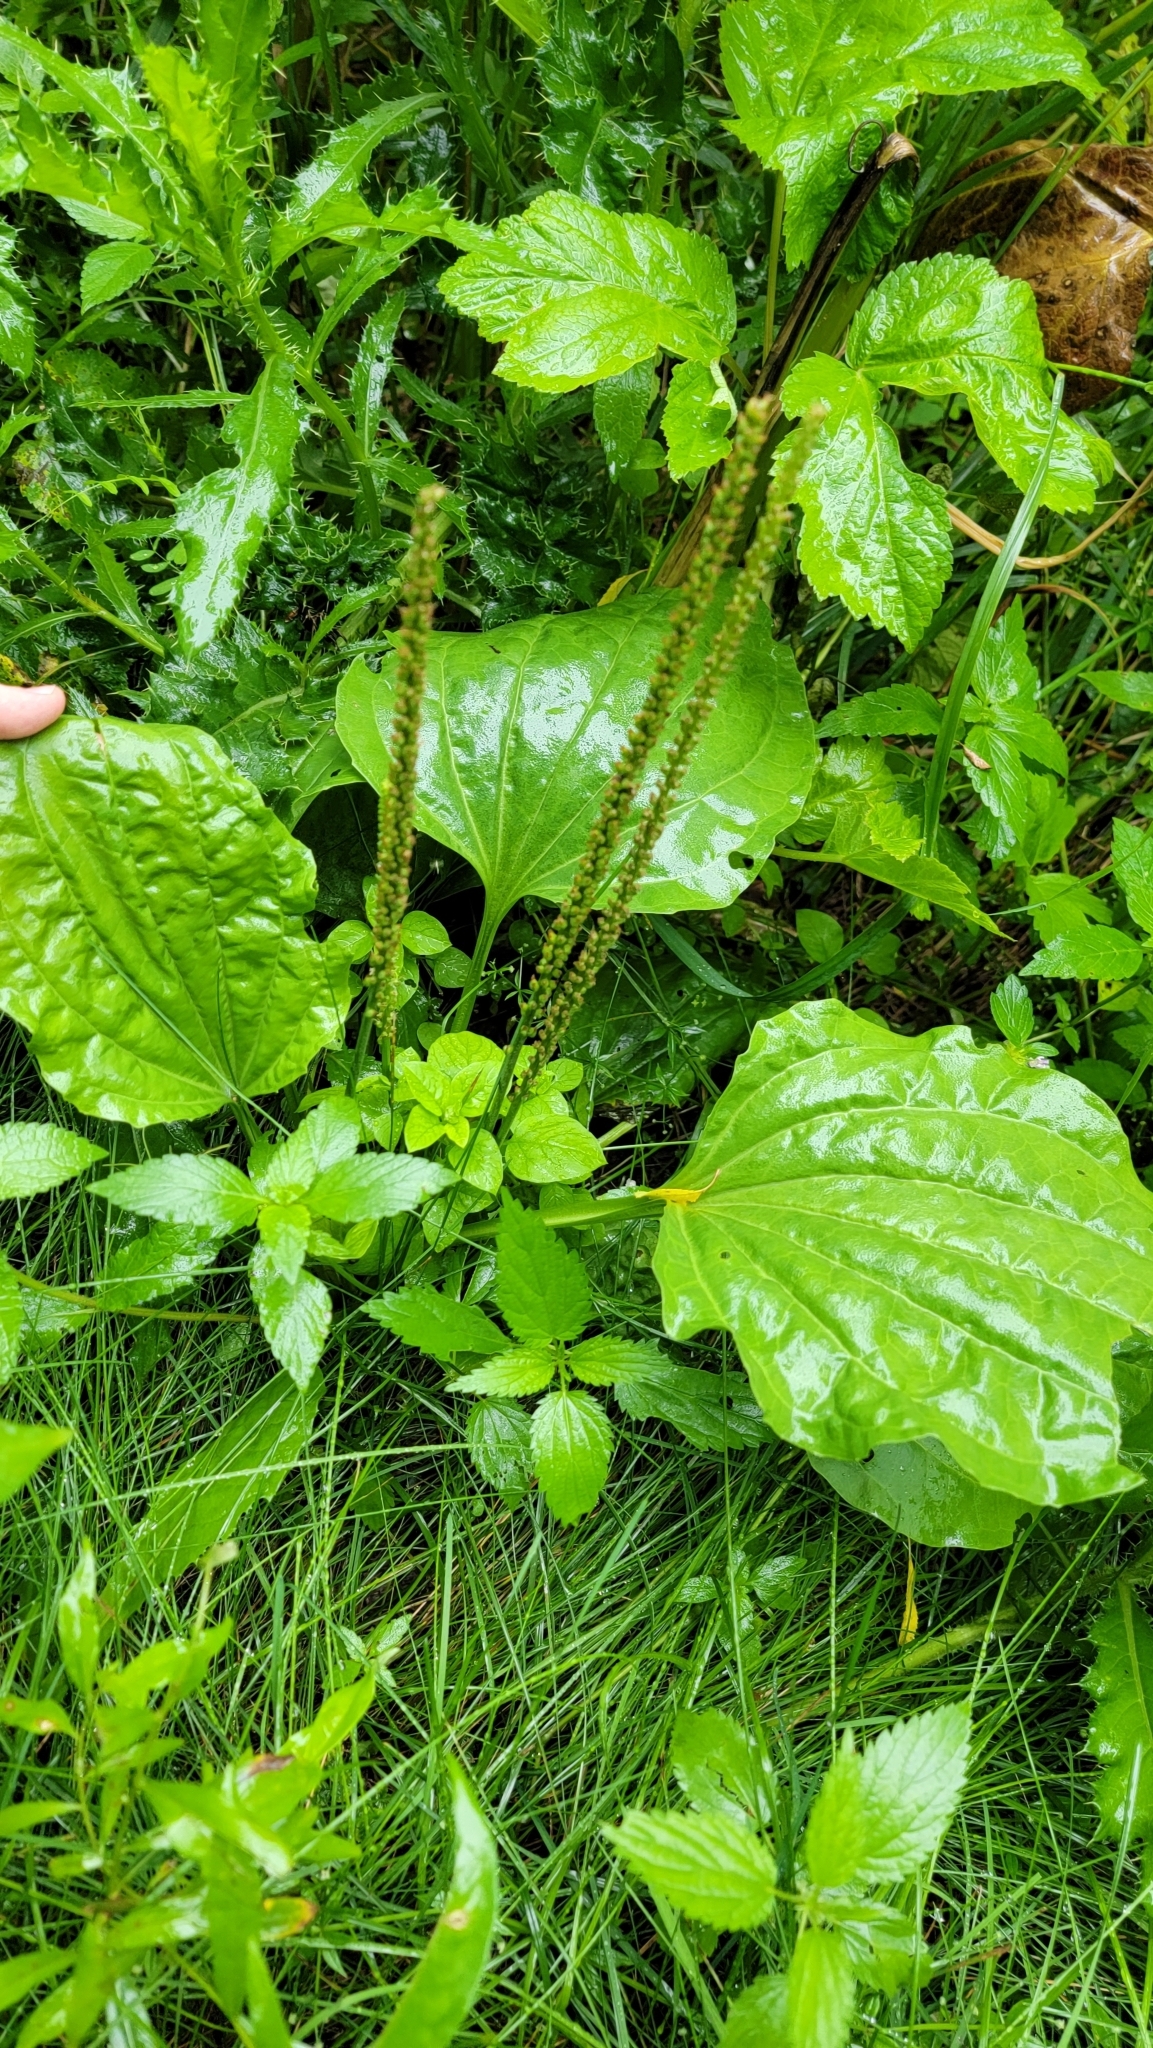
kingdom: Plantae
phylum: Tracheophyta
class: Magnoliopsida
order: Lamiales
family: Plantaginaceae
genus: Plantago
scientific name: Plantago major
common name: Common plantain
